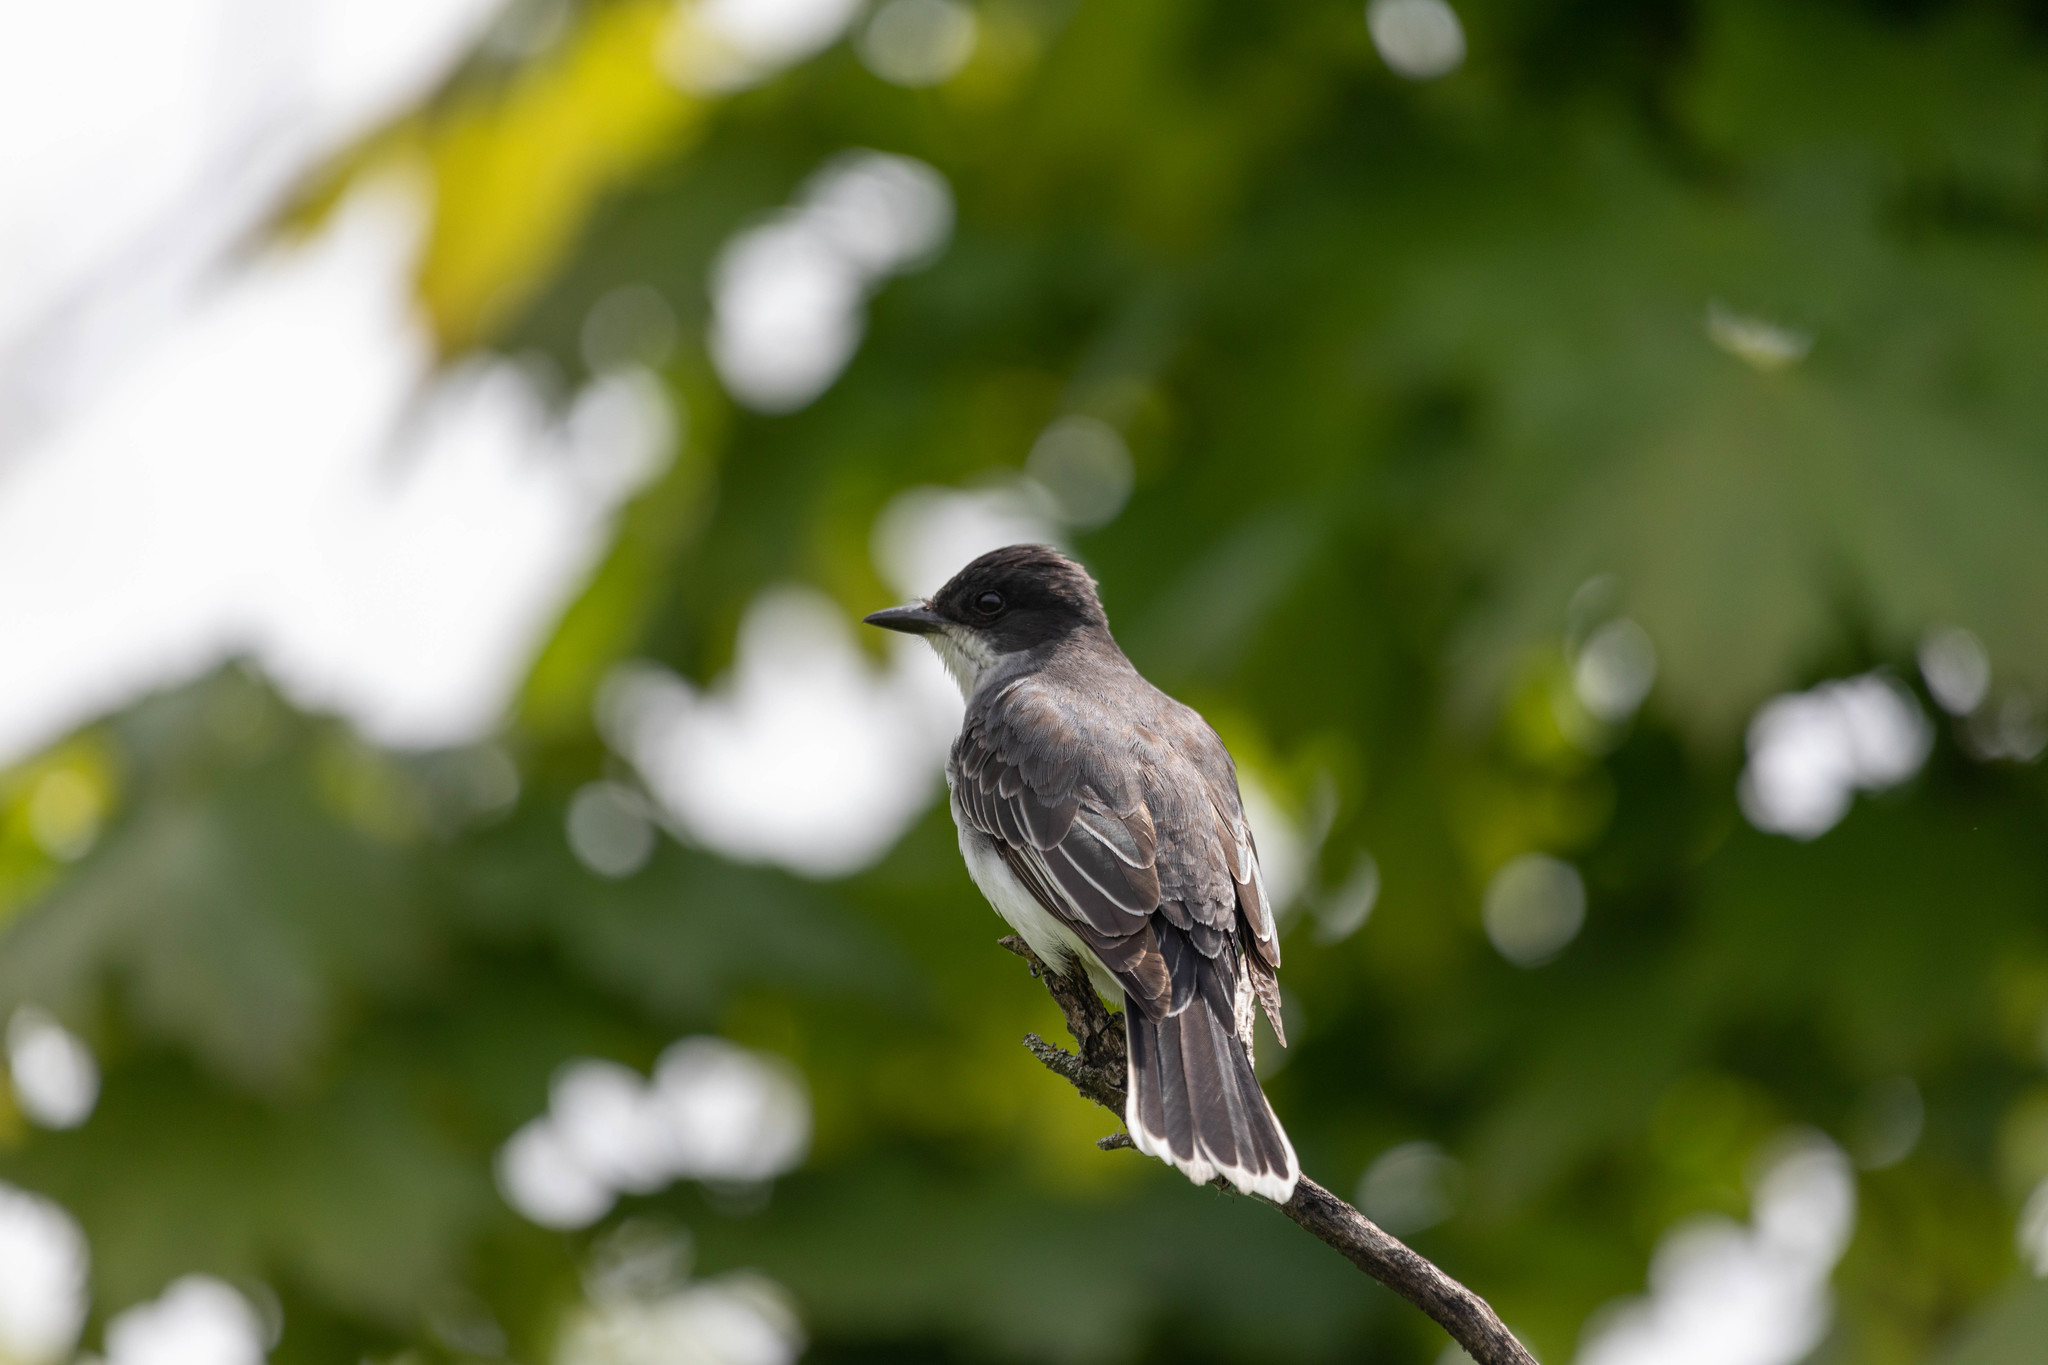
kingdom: Animalia
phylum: Chordata
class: Aves
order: Passeriformes
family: Tyrannidae
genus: Tyrannus
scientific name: Tyrannus tyrannus
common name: Eastern kingbird
